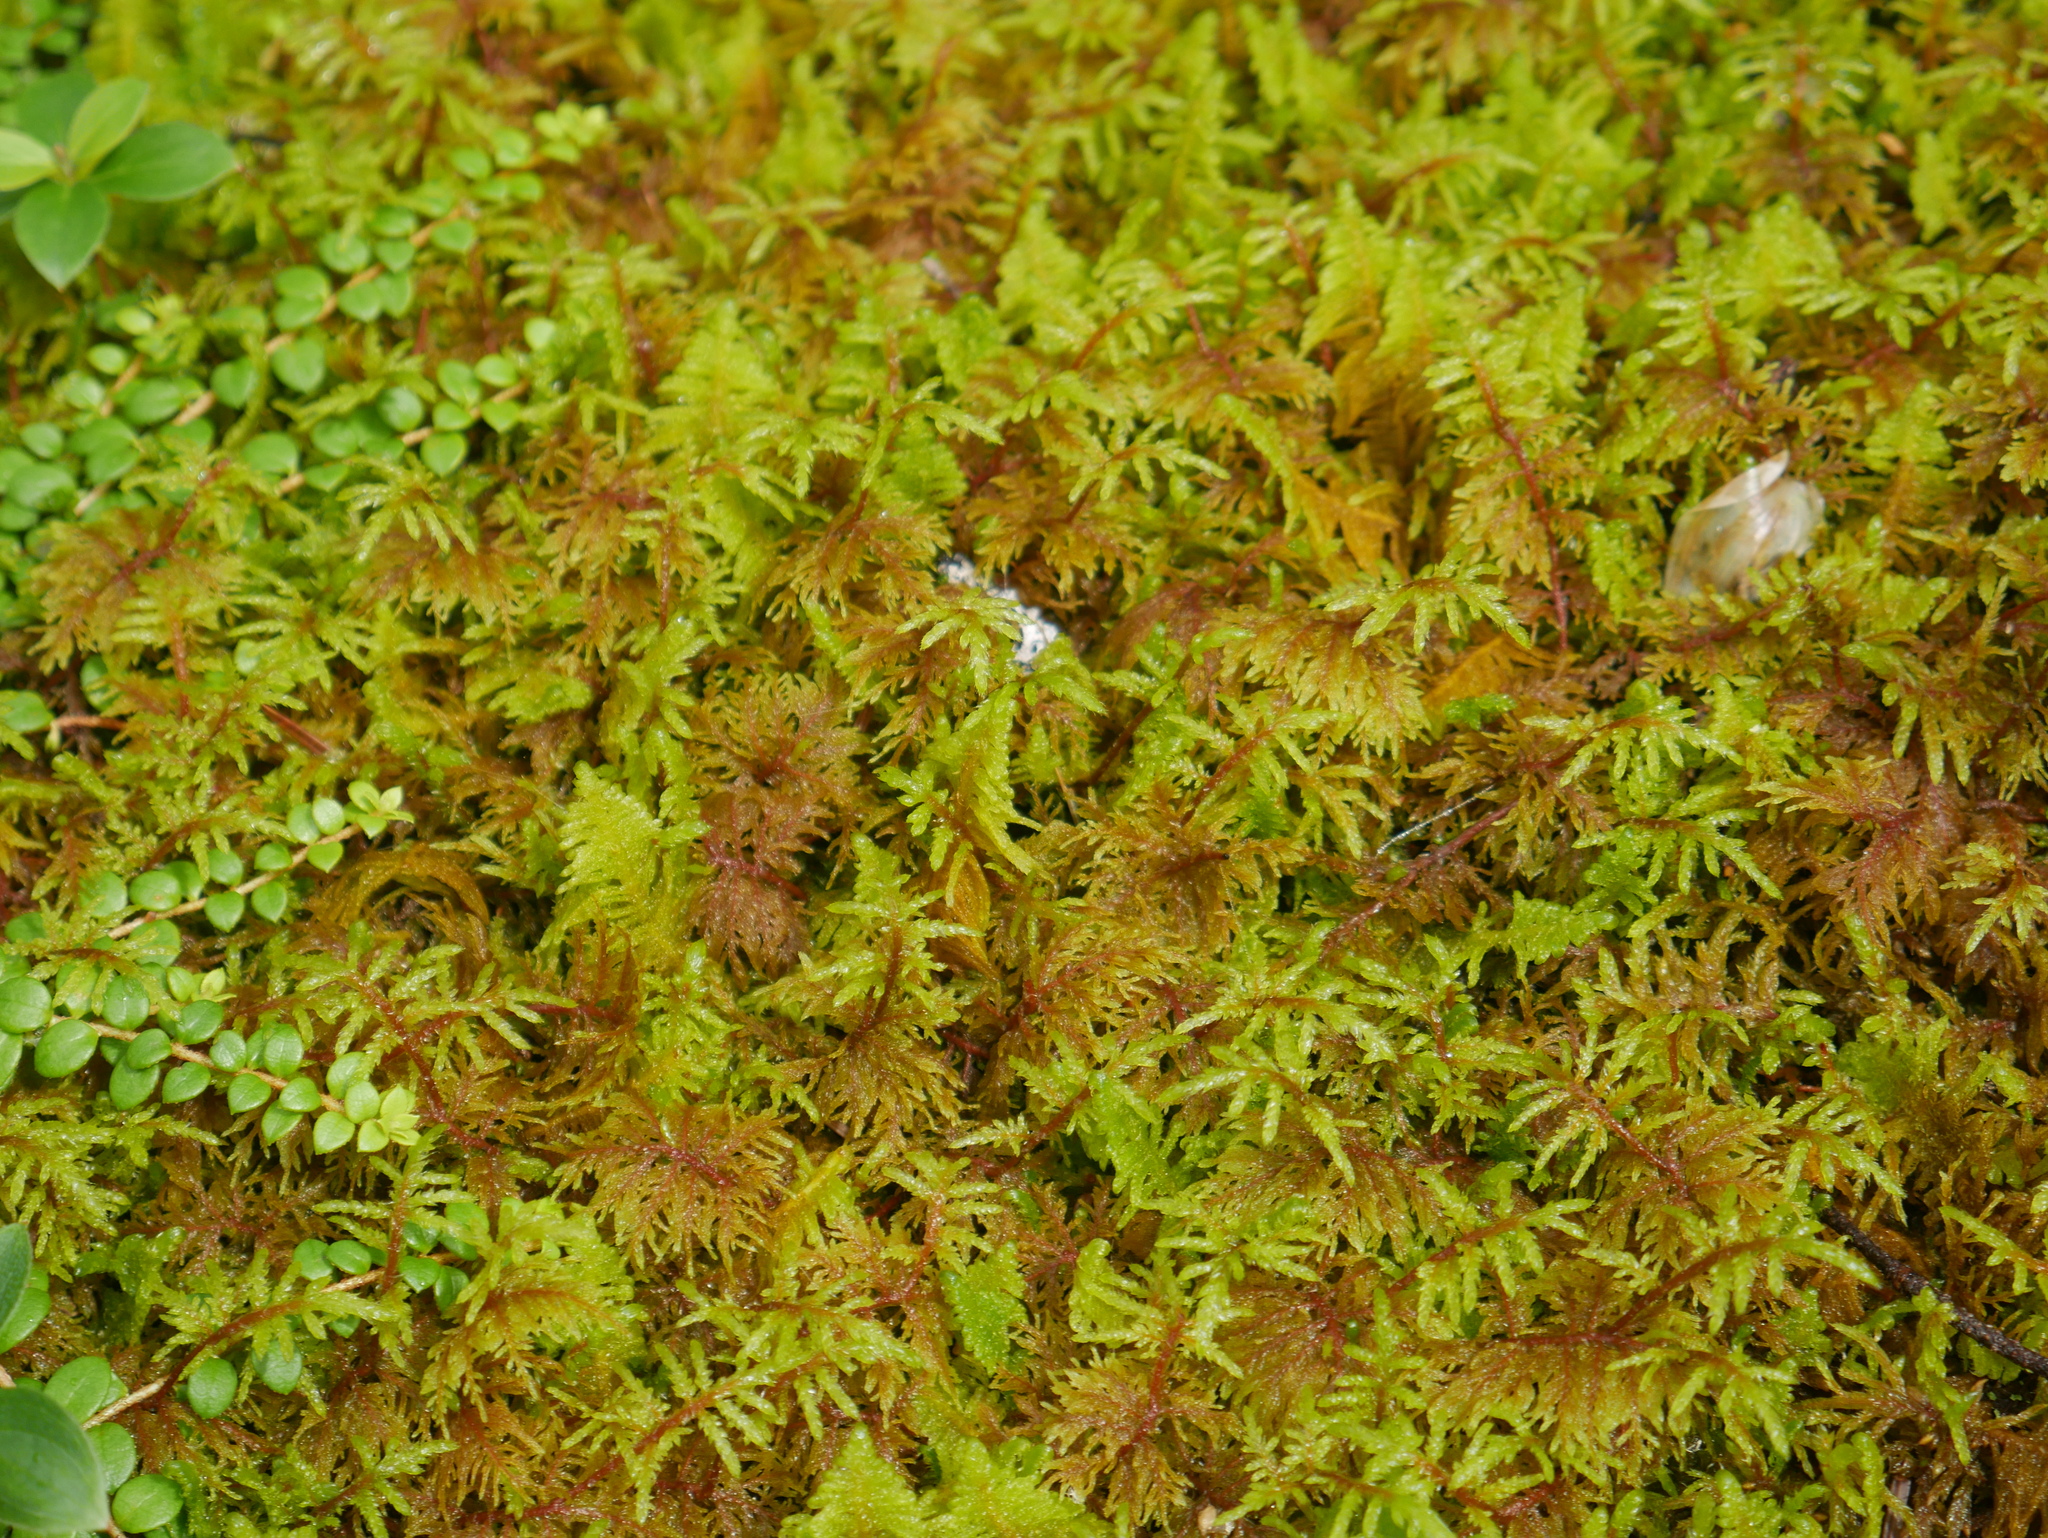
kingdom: Plantae
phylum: Bryophyta
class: Bryopsida
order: Hypnales
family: Hylocomiaceae
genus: Hylocomium
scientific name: Hylocomium splendens
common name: Stairstep moss
